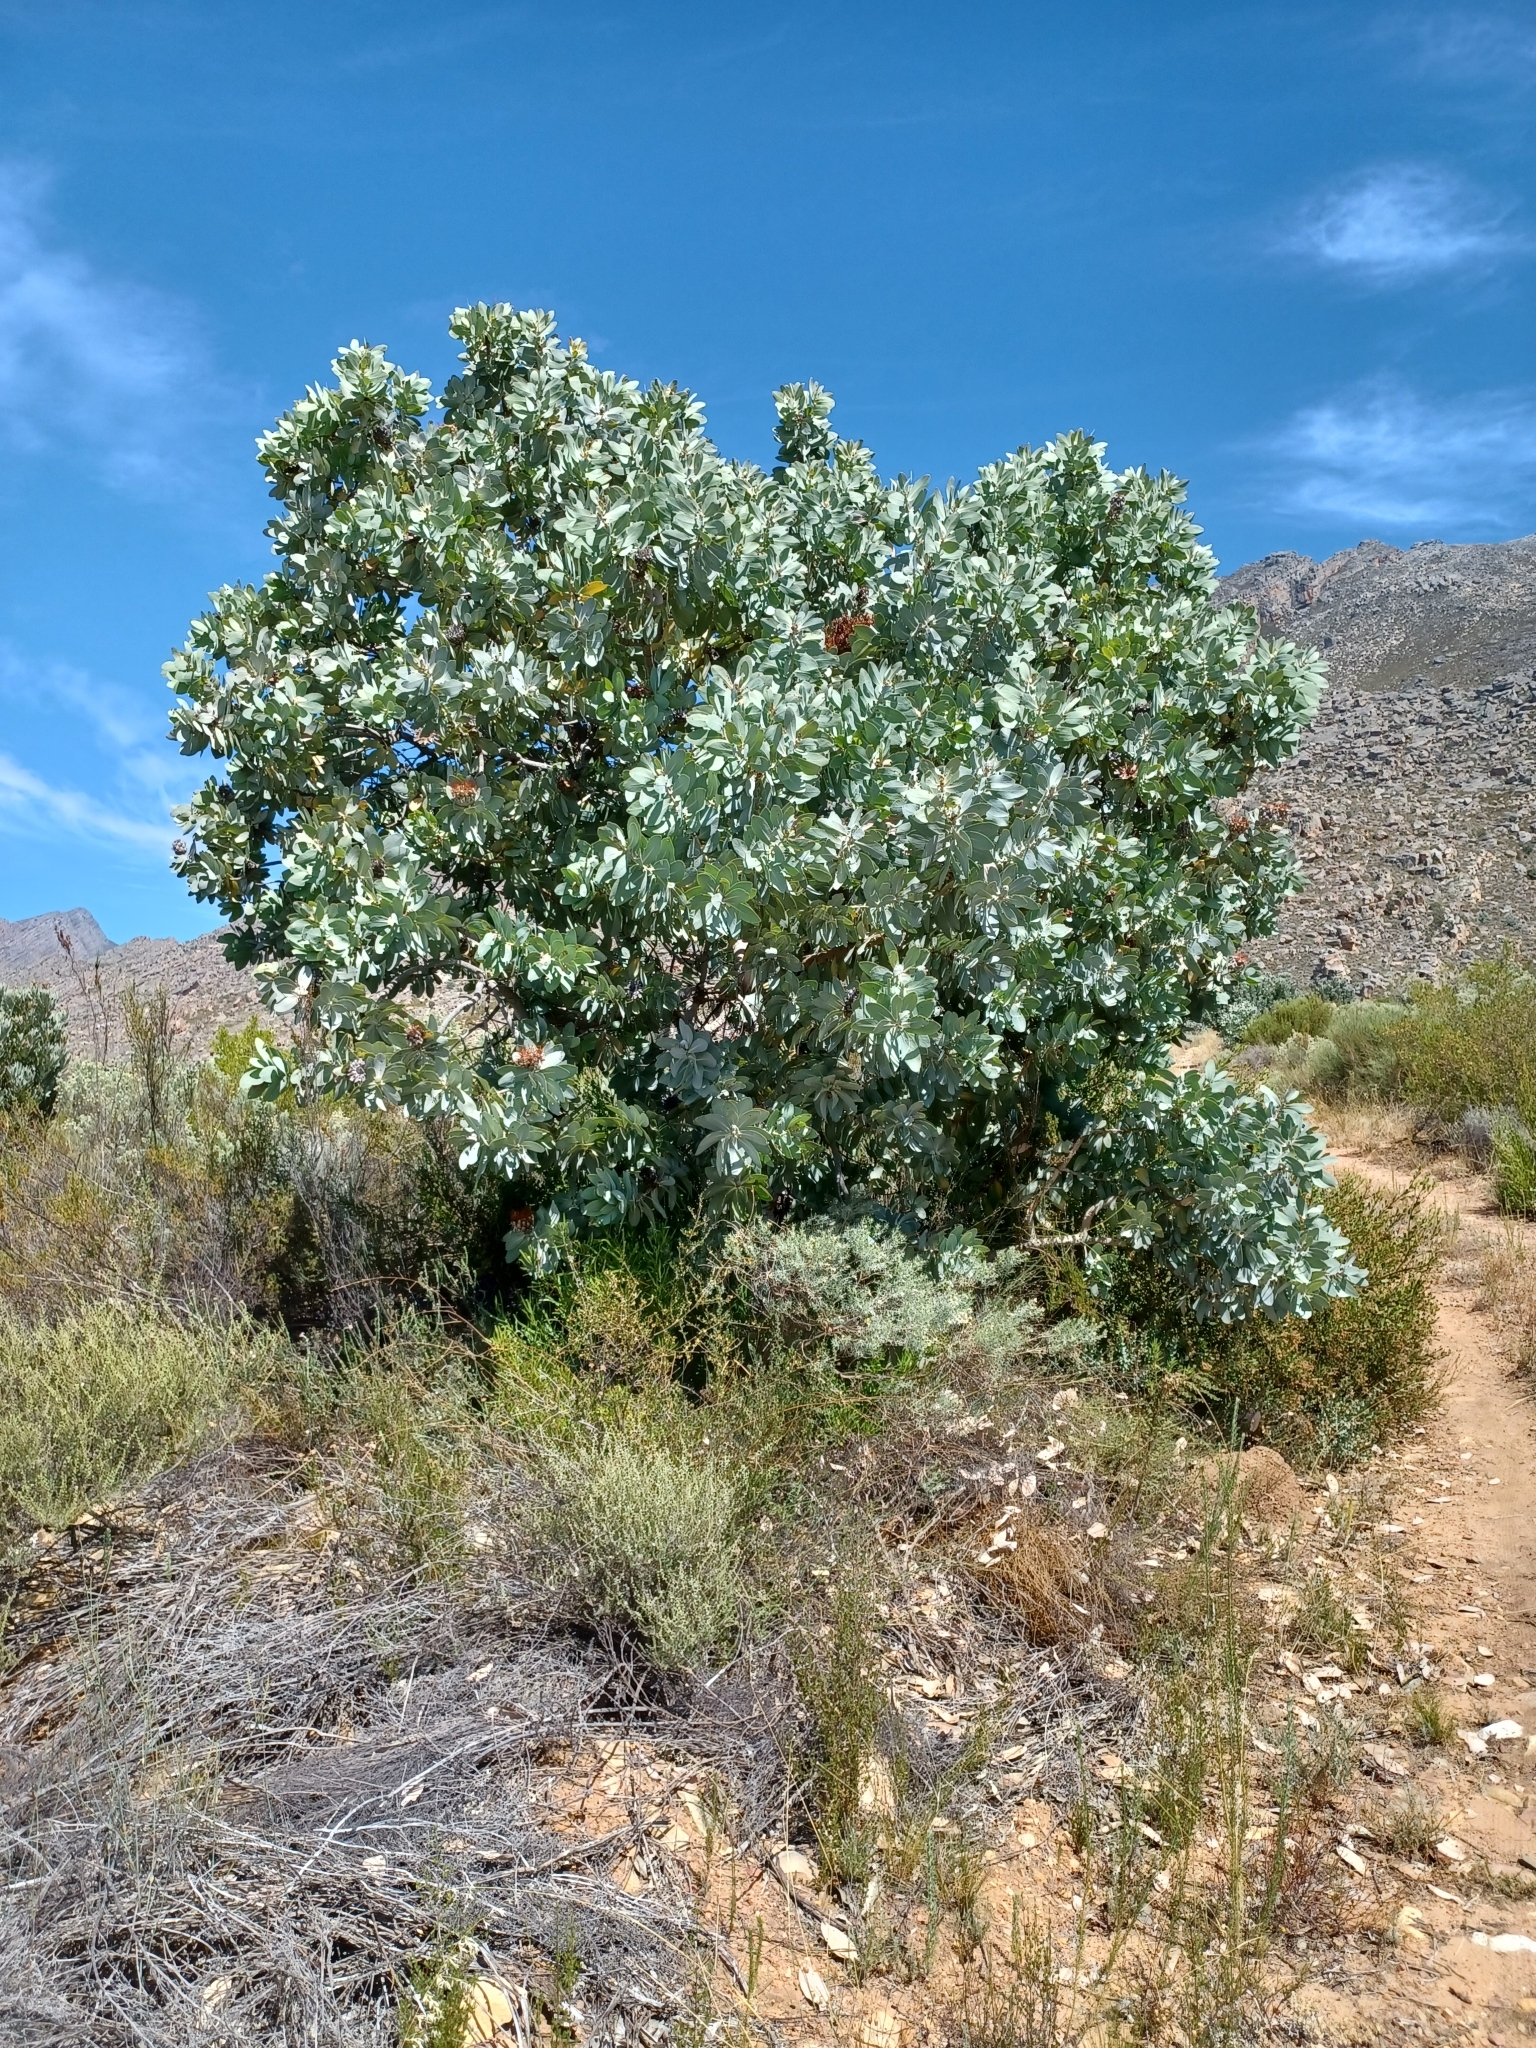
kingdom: Plantae
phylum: Tracheophyta
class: Magnoliopsida
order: Proteales
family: Proteaceae
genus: Protea
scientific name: Protea nitida
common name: Tree protea
